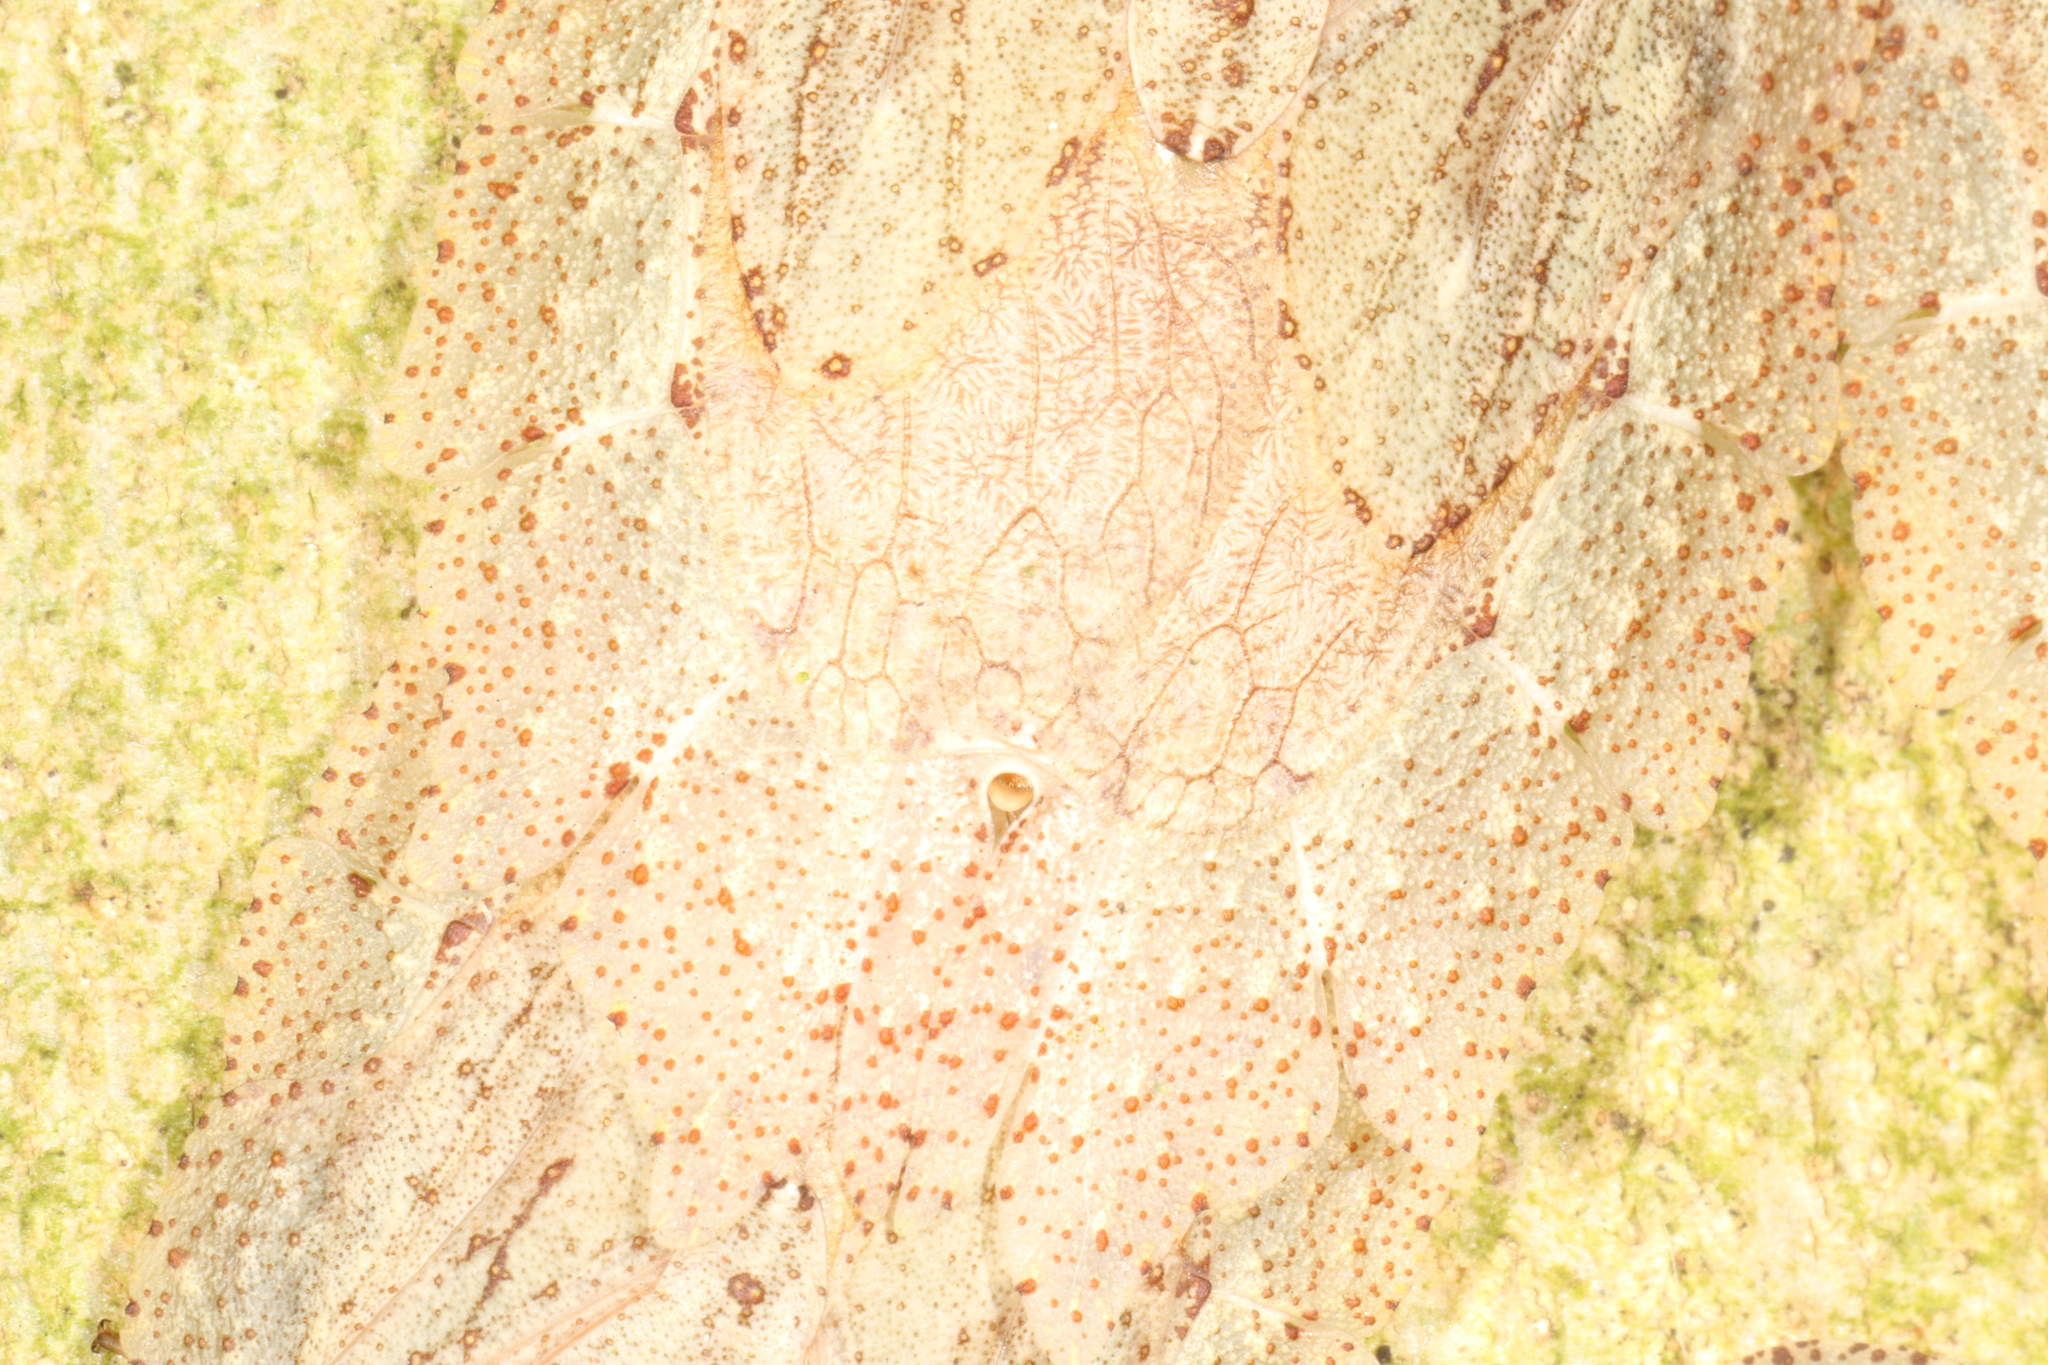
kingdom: Animalia
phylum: Arthropoda
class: Insecta
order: Hemiptera
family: Phleides
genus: Phloea
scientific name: Phloea
